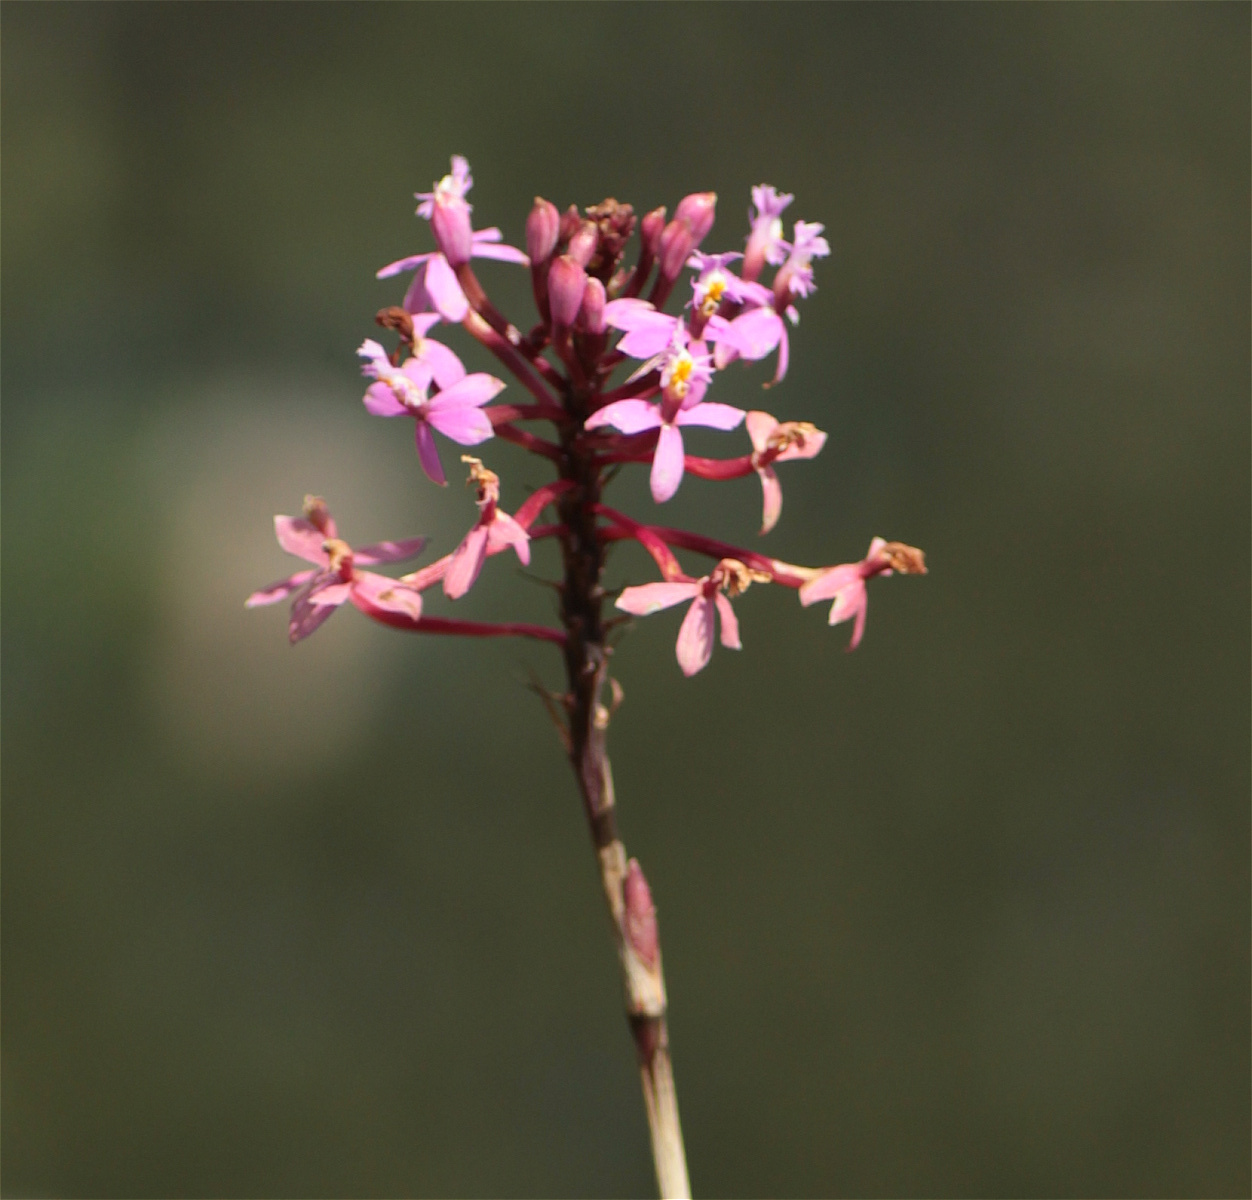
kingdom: Plantae
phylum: Tracheophyta
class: Liliopsida
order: Asparagales
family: Orchidaceae
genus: Epidendrum
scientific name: Epidendrum arachnoglossum
